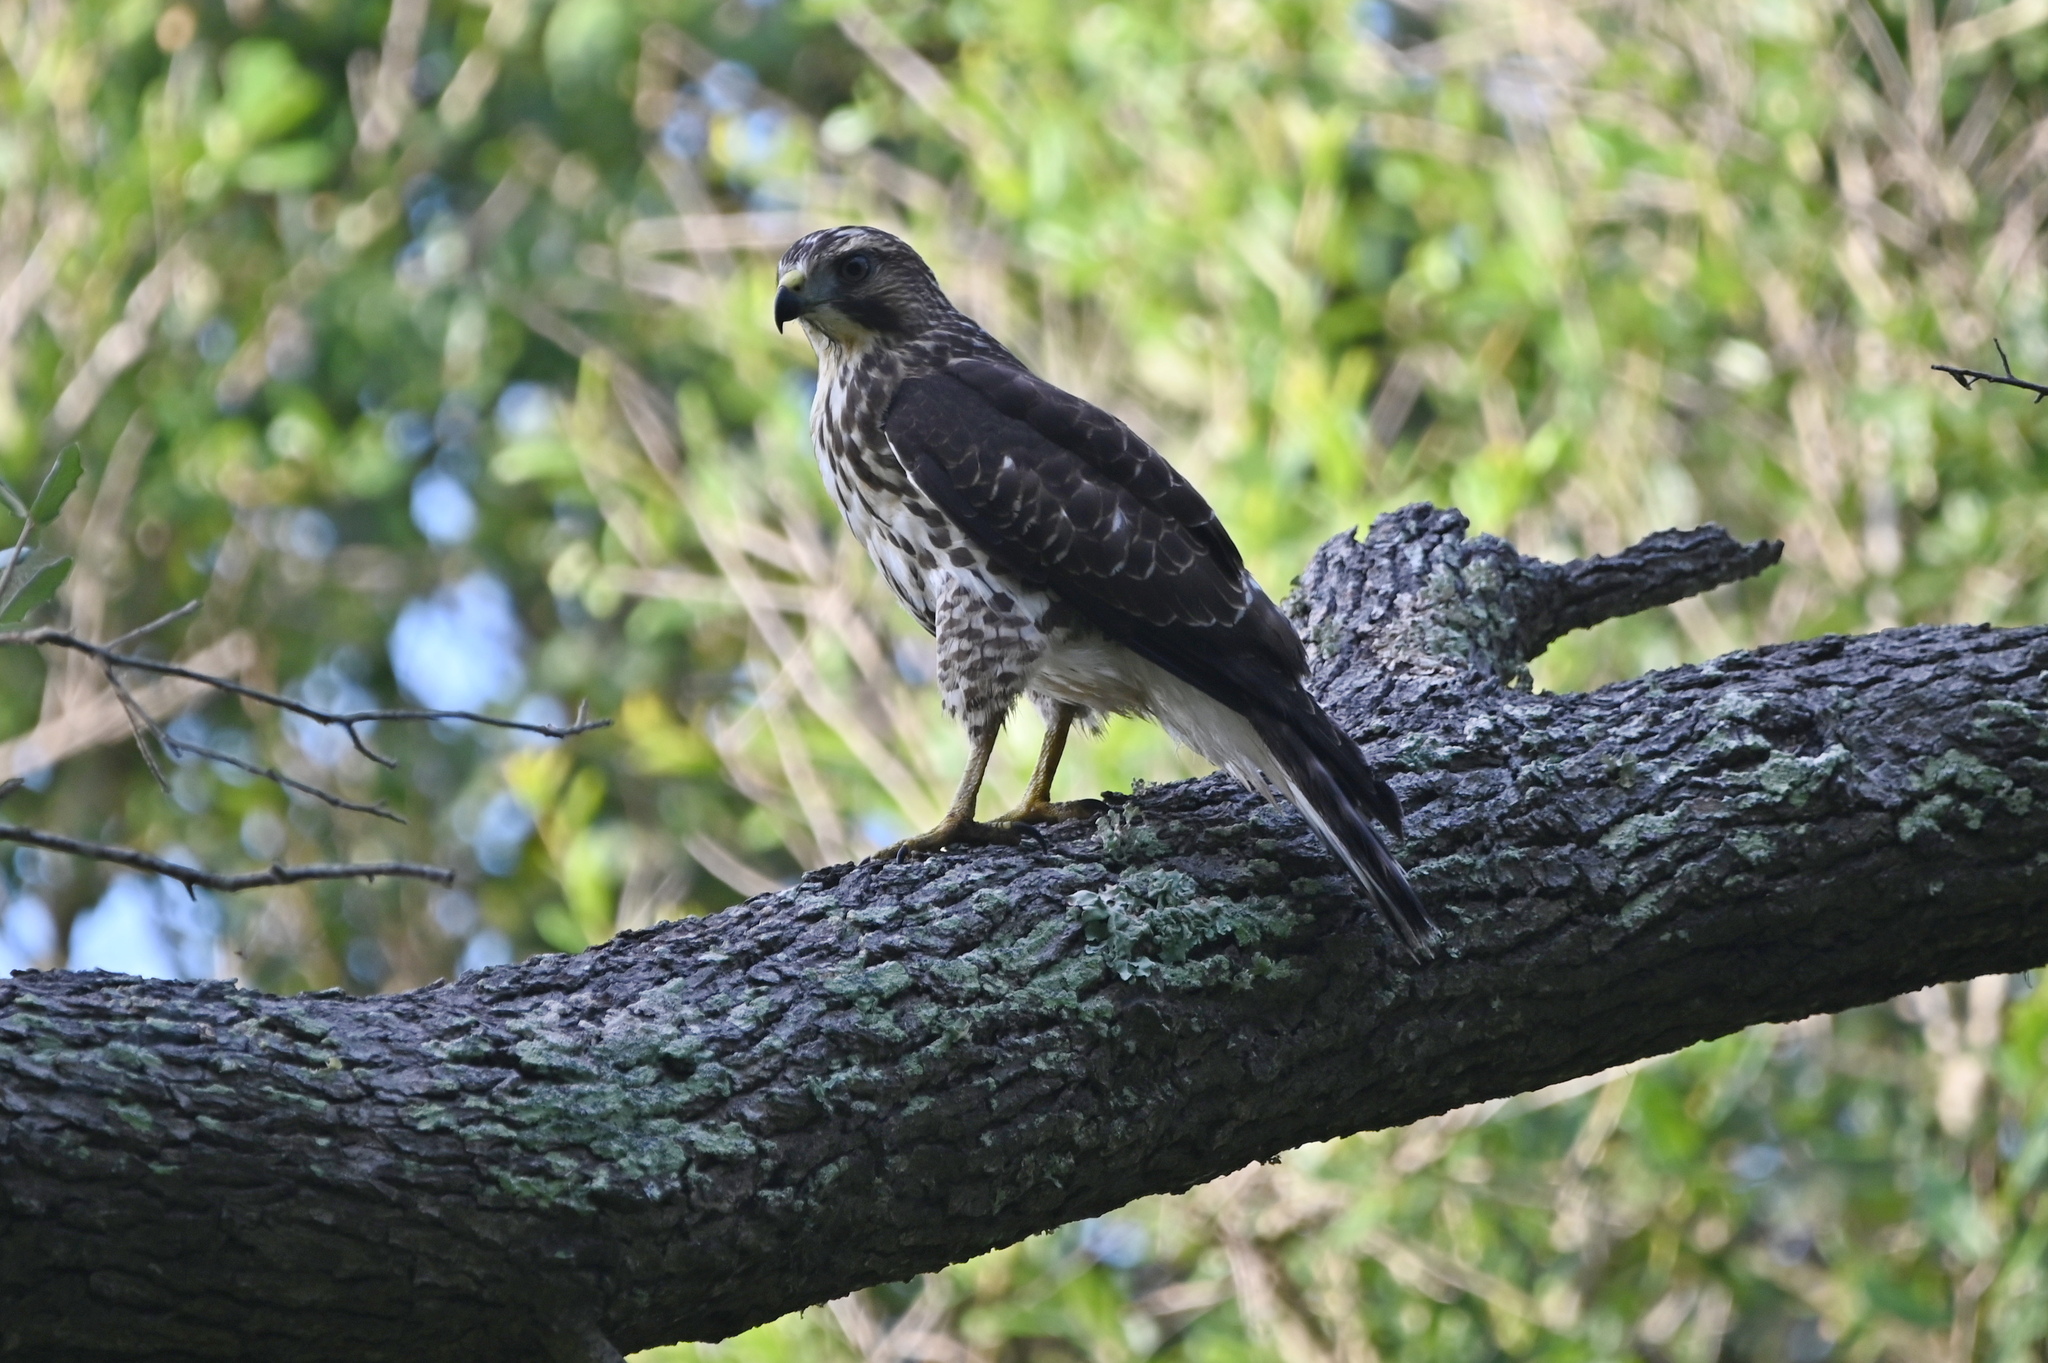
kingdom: Animalia
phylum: Chordata
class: Aves
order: Accipitriformes
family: Accipitridae
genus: Buteo
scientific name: Buteo platypterus
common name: Broad-winged hawk
